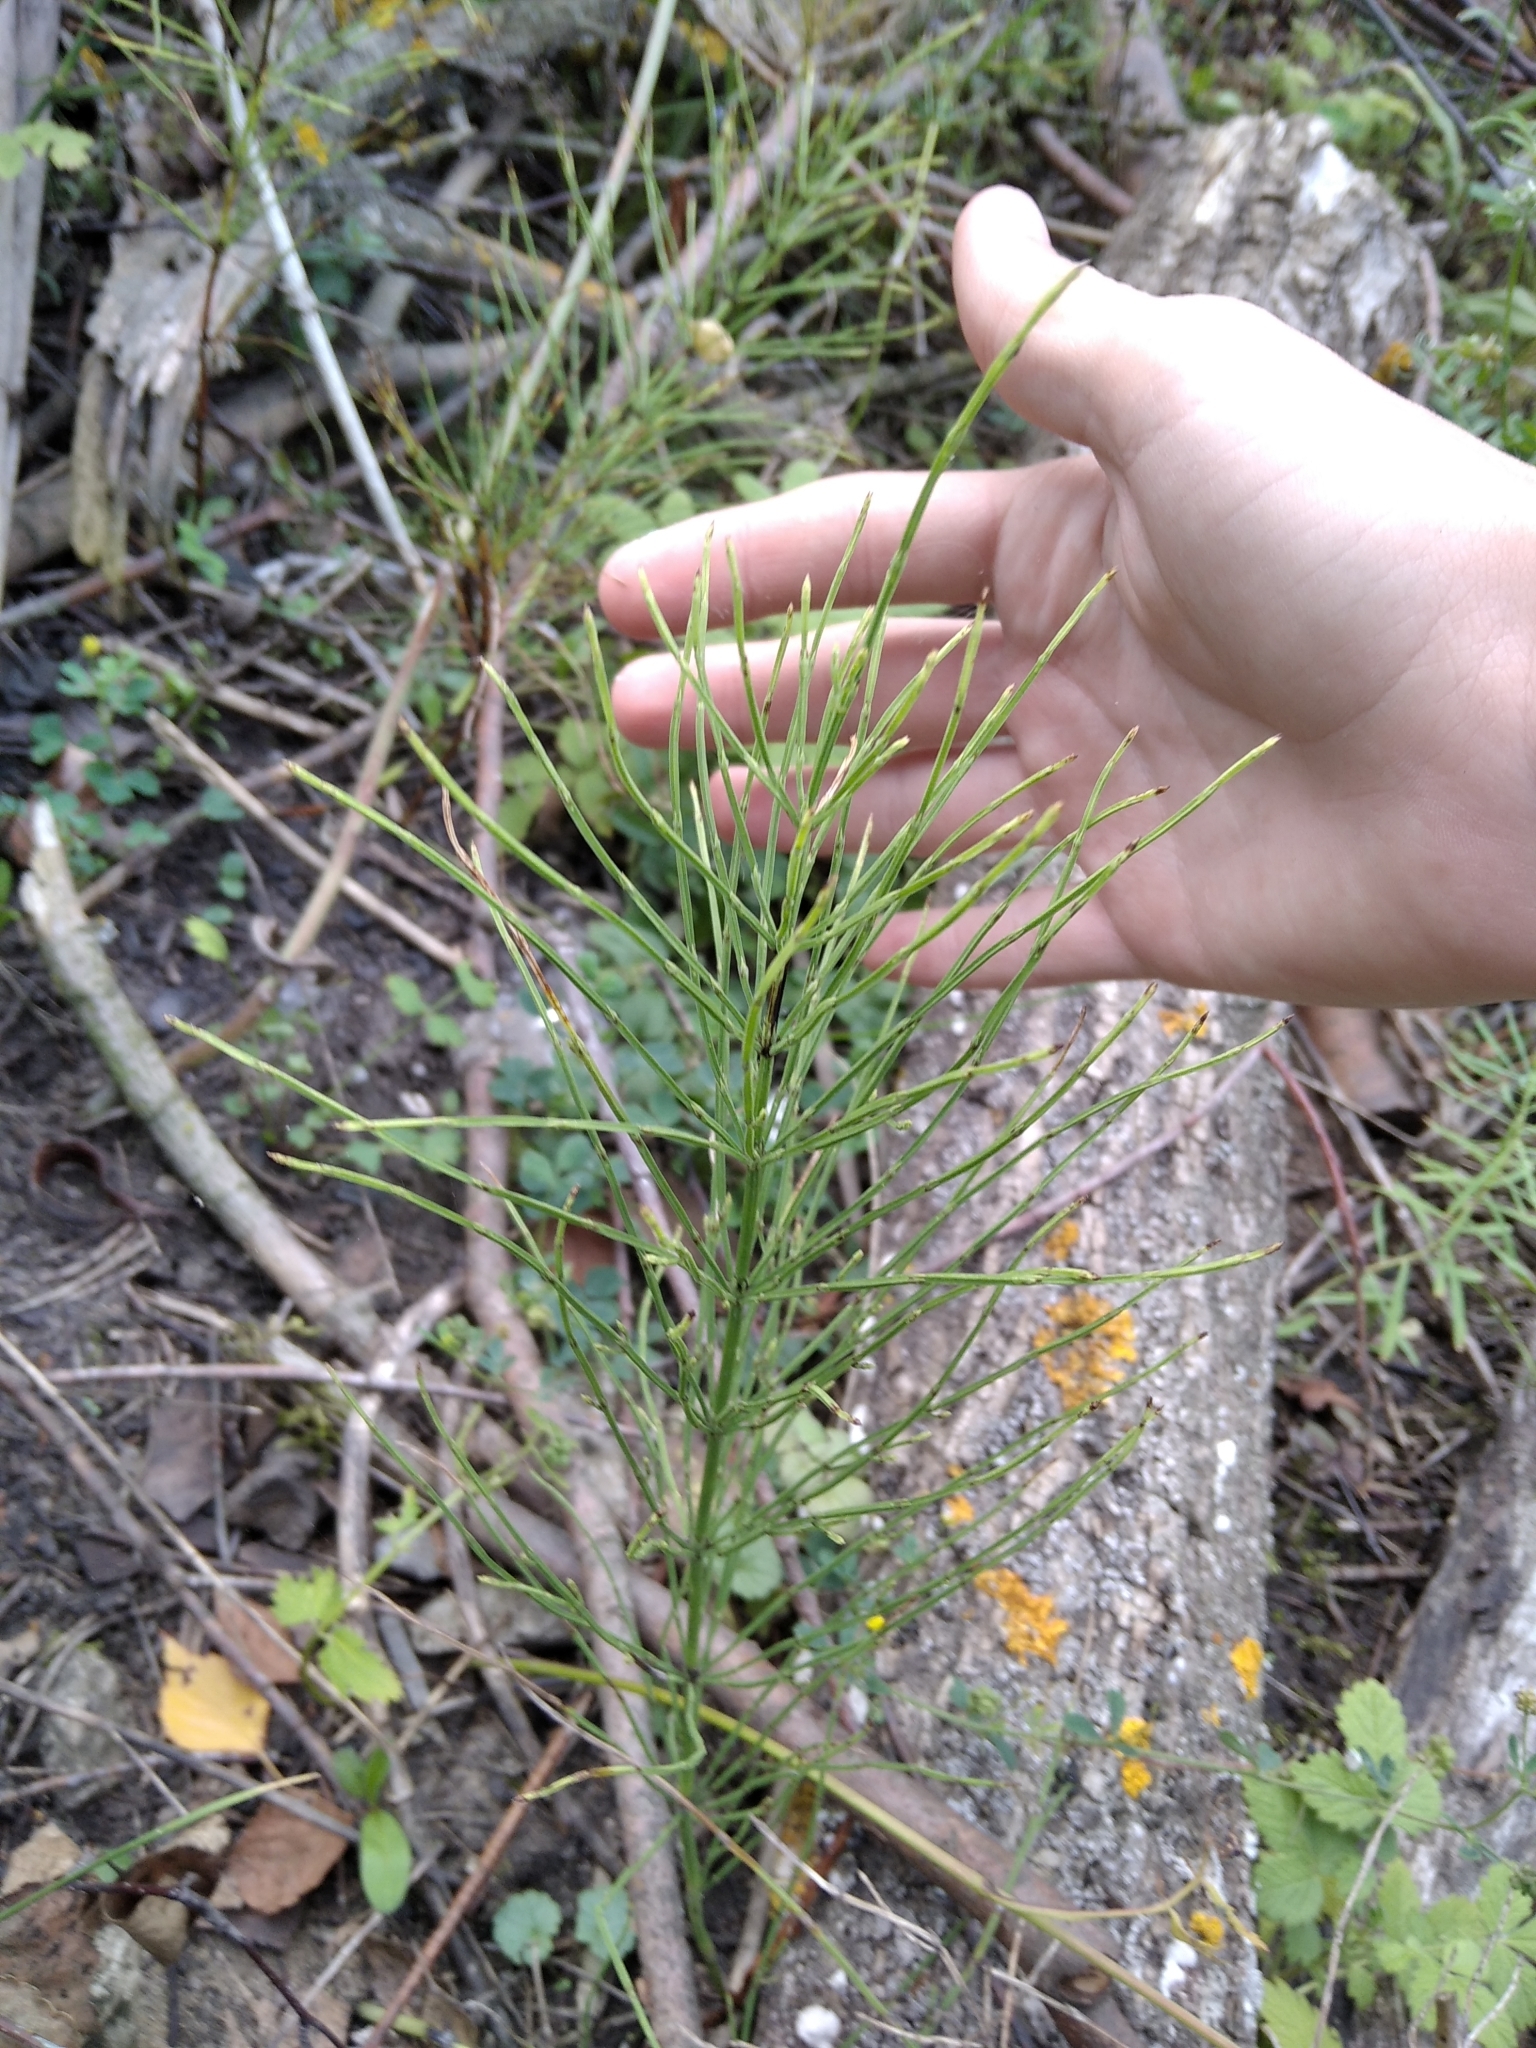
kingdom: Plantae
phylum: Tracheophyta
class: Polypodiopsida
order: Equisetales
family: Equisetaceae
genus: Equisetum
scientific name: Equisetum arvense
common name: Field horsetail
